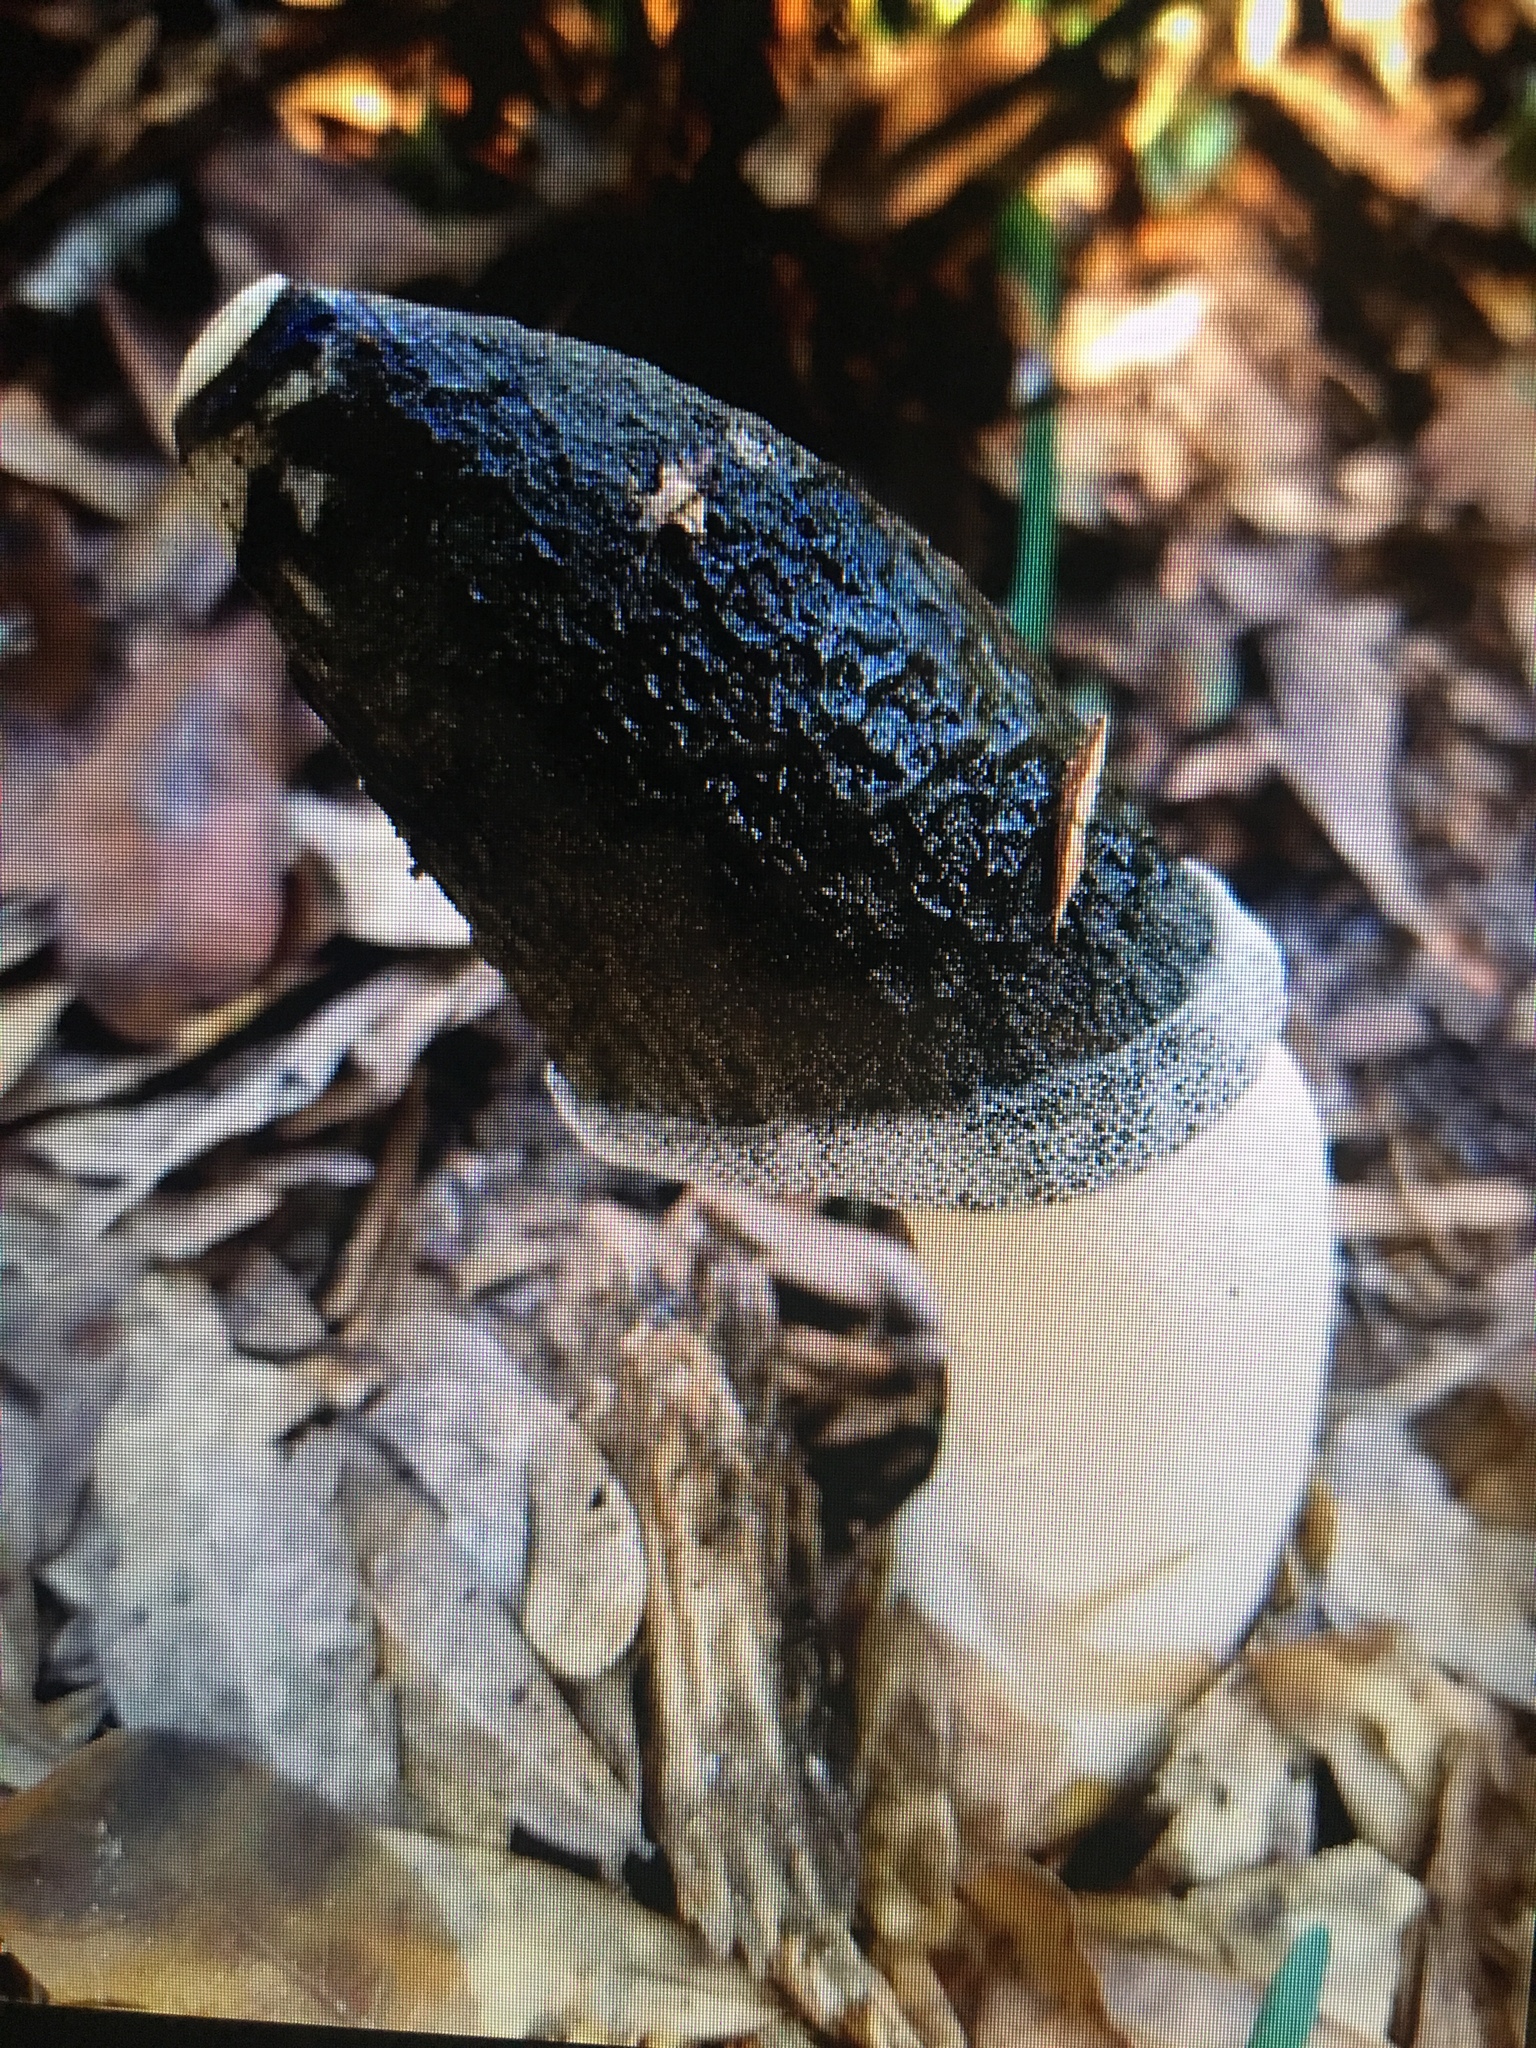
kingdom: Fungi
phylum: Basidiomycota
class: Agaricomycetes
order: Phallales
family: Phallaceae
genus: Phallus
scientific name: Phallus ravenelii
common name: Ravenel's stinkhorn
